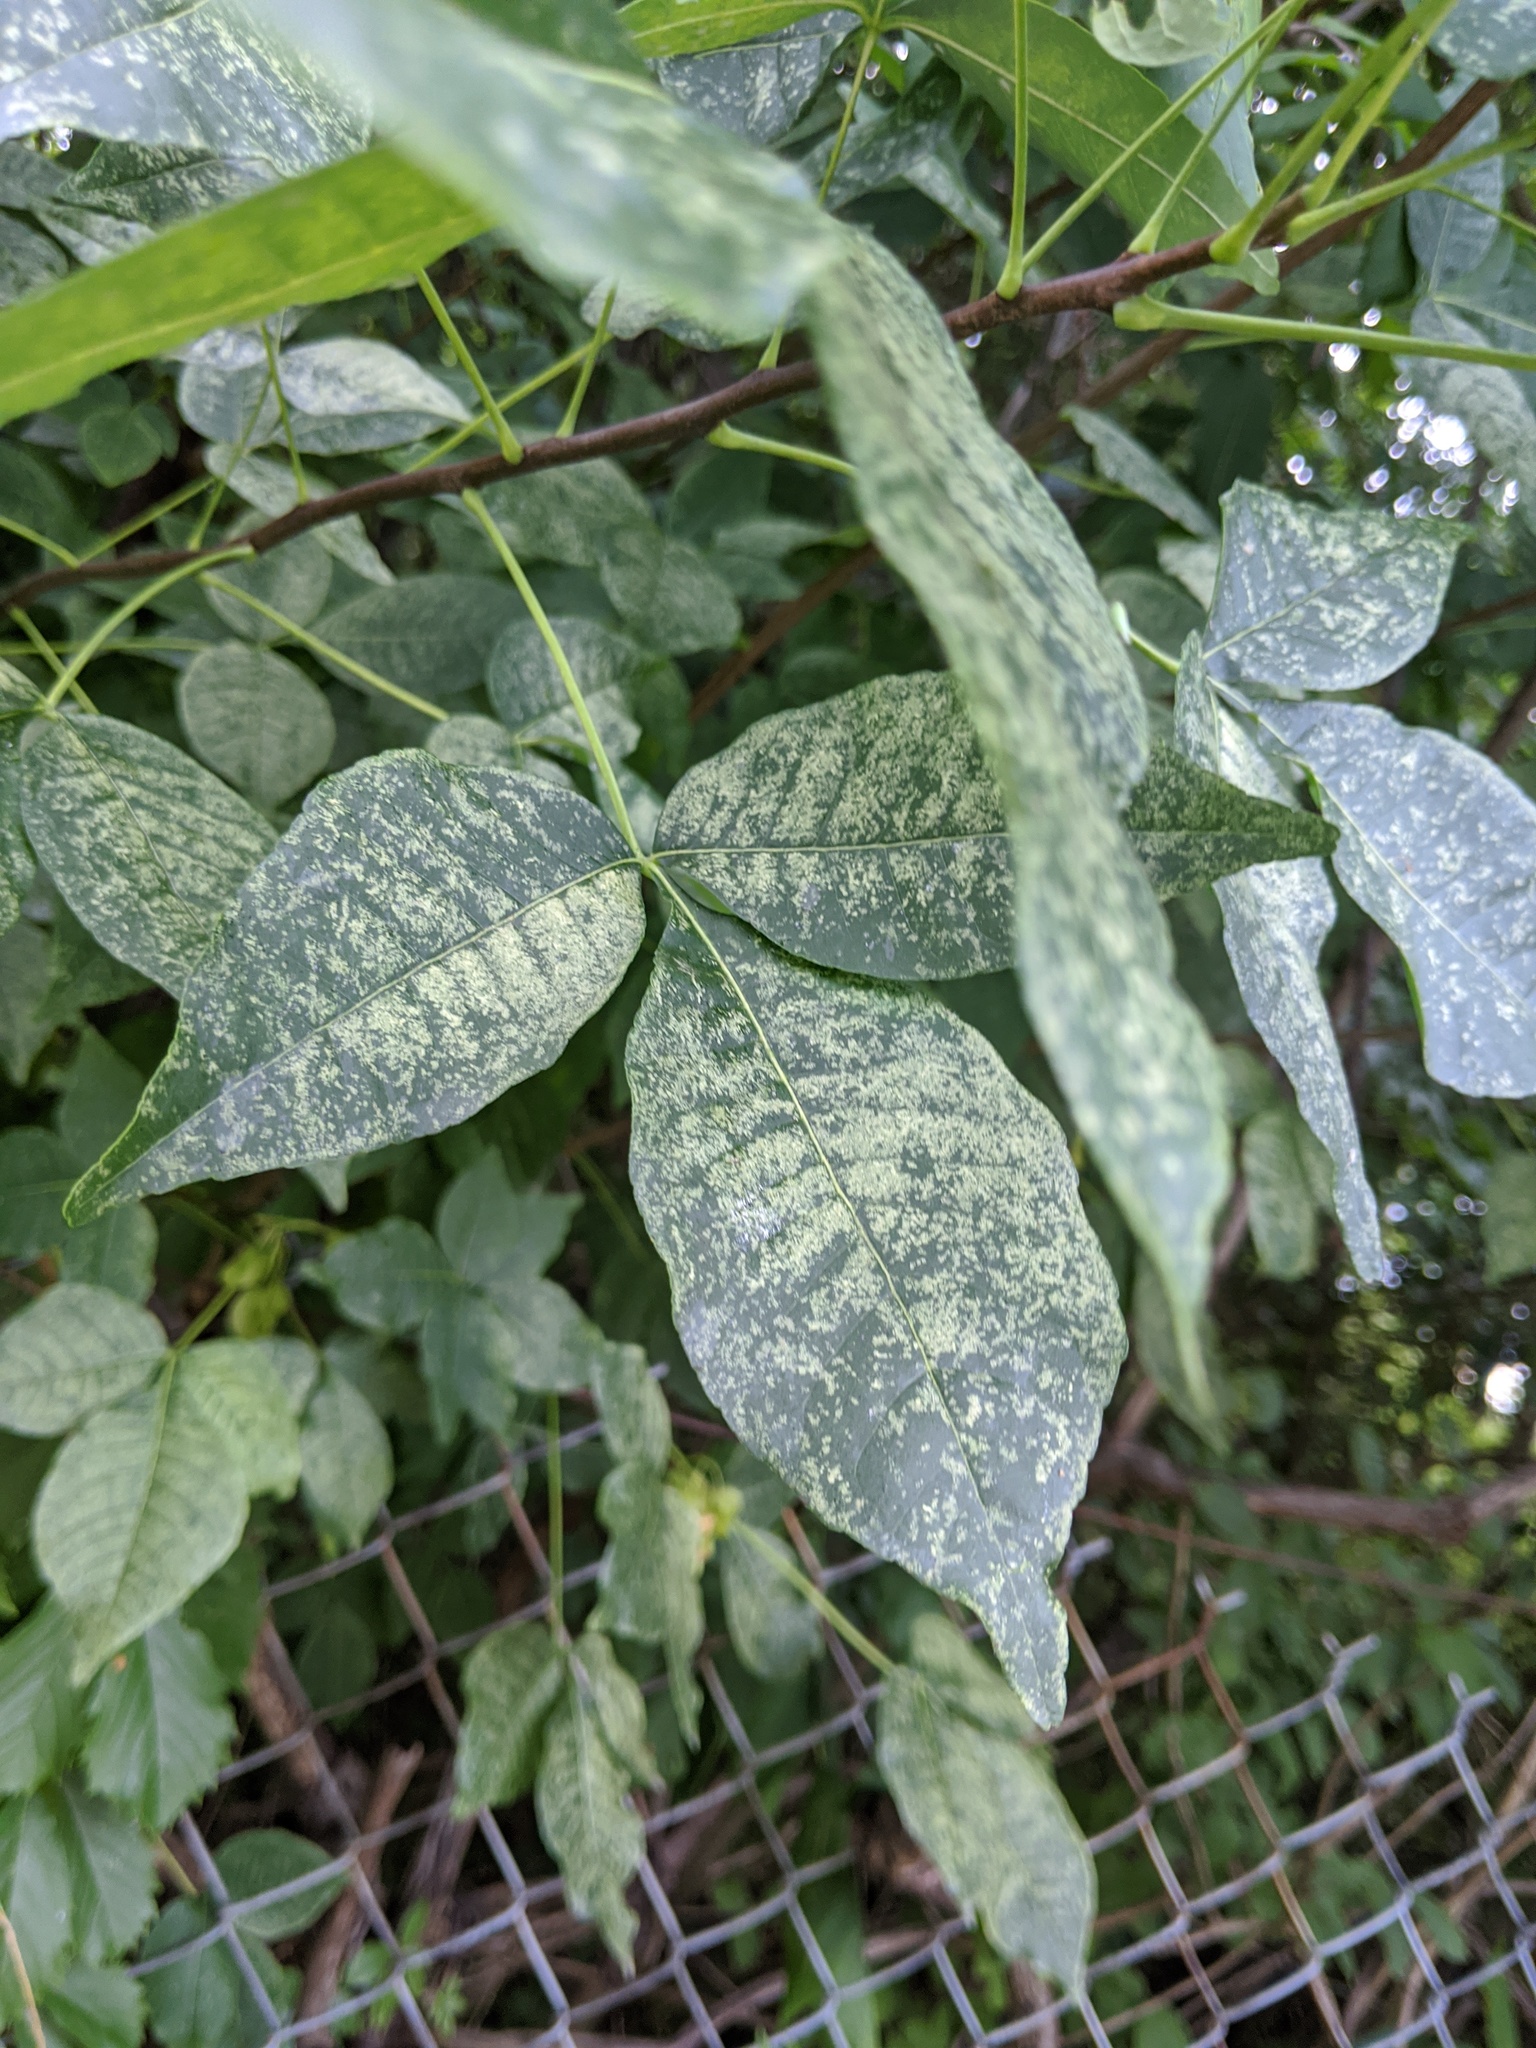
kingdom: Plantae
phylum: Tracheophyta
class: Magnoliopsida
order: Sapindales
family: Rutaceae
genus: Ptelea
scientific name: Ptelea trifoliata
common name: Common hop-tree
